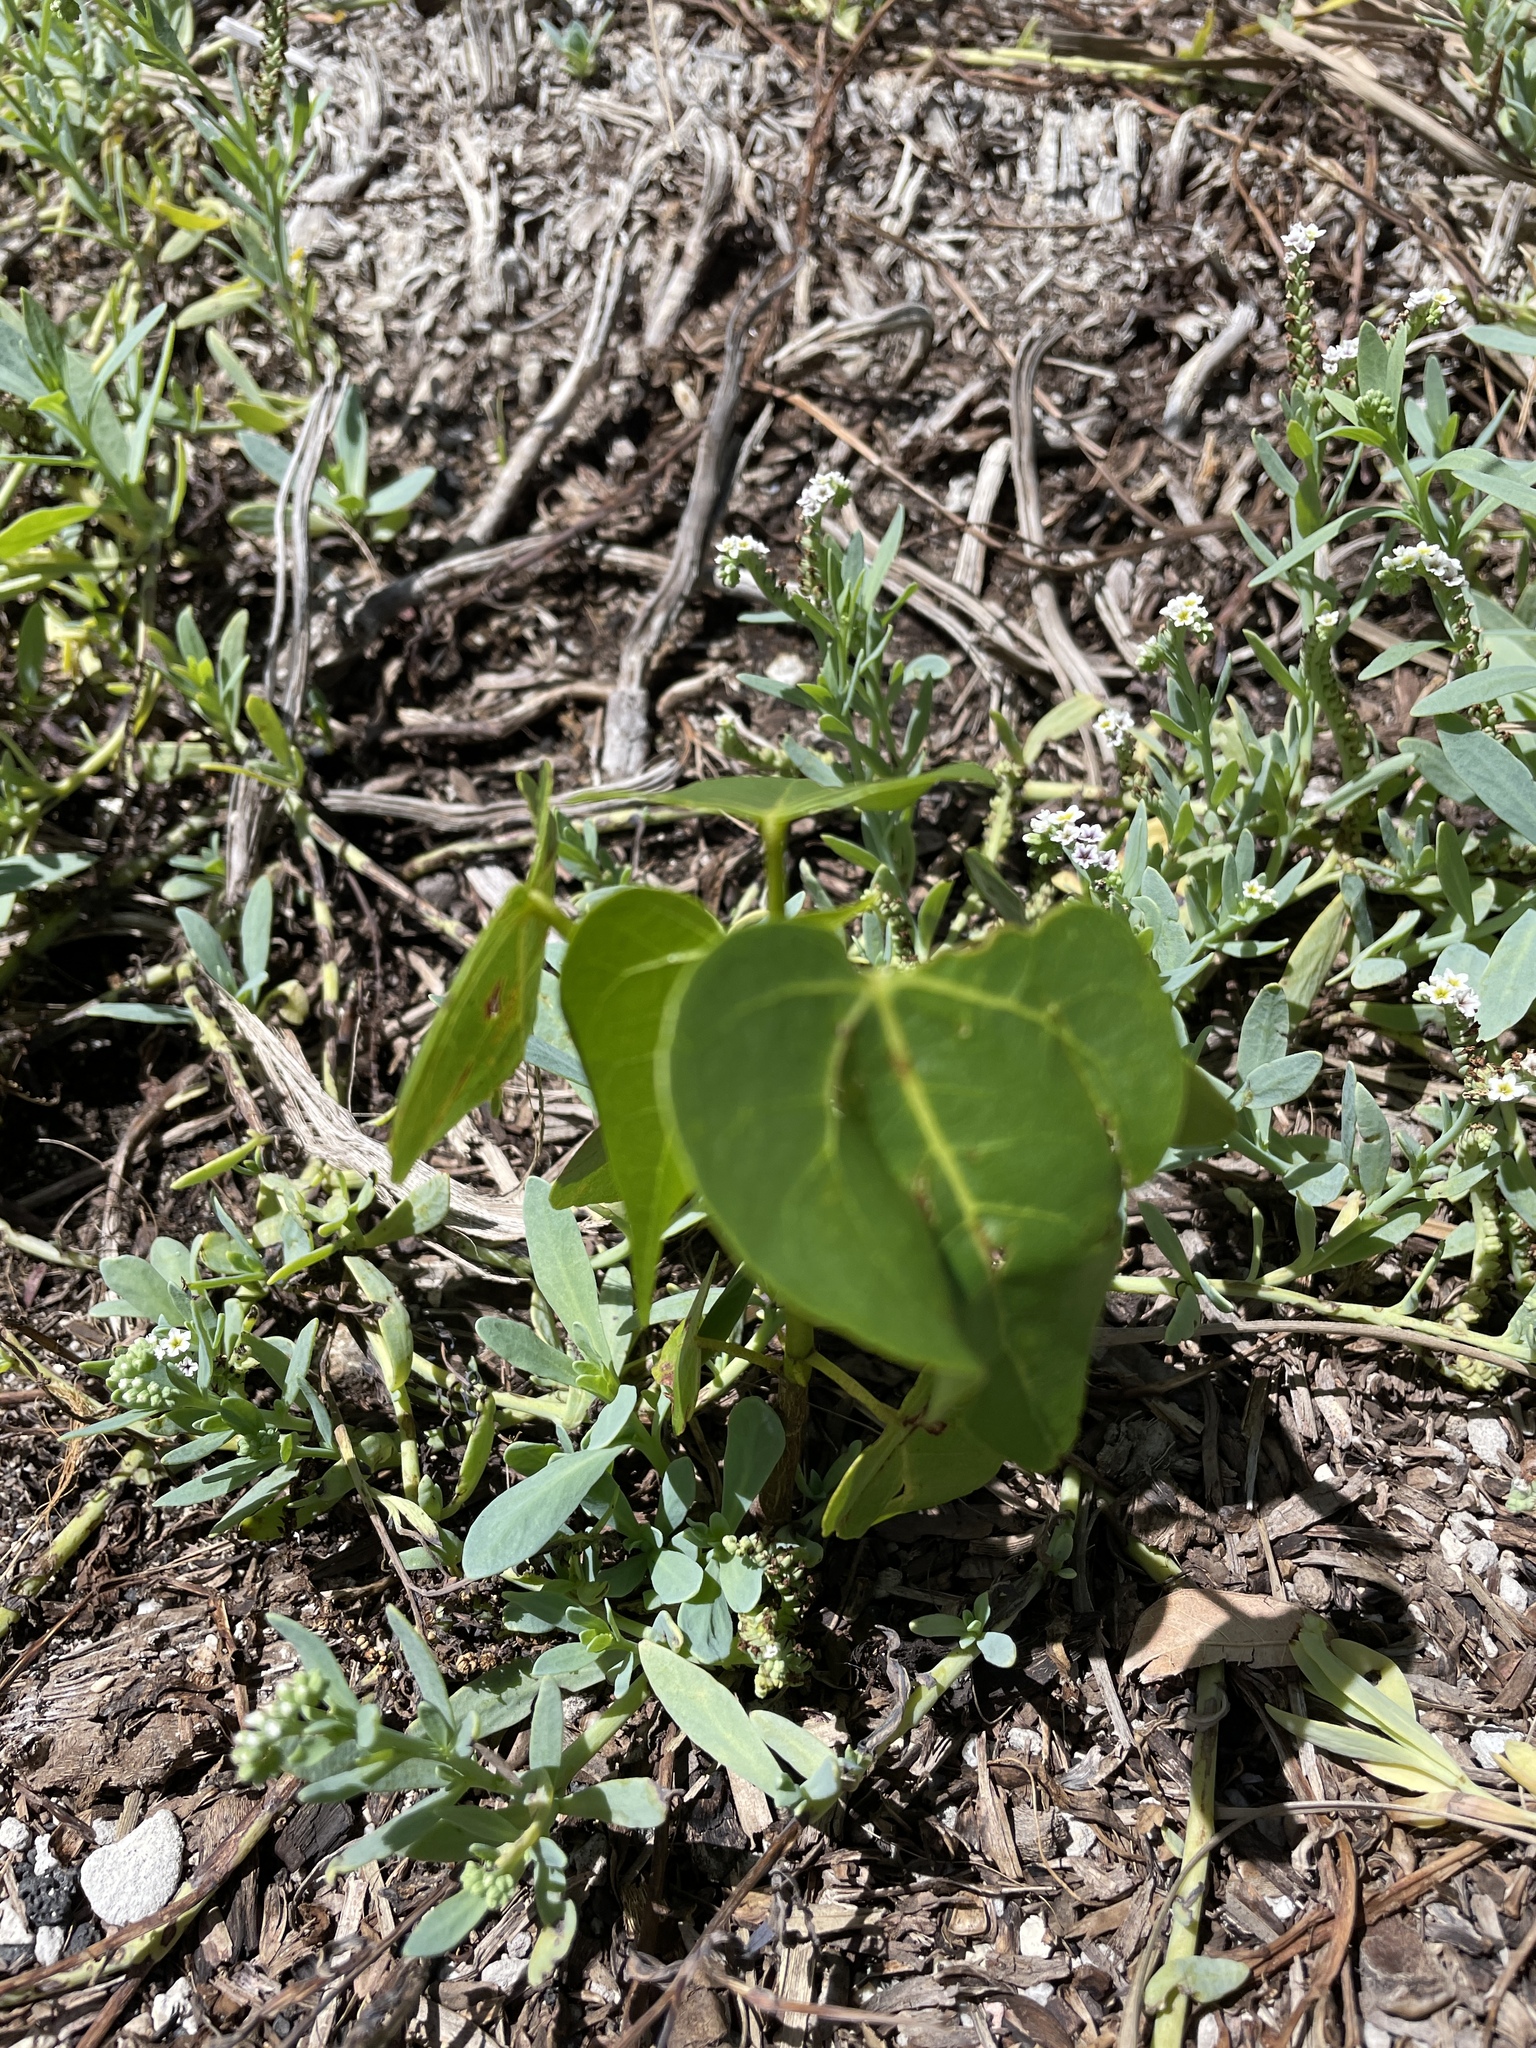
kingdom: Plantae
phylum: Tracheophyta
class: Magnoliopsida
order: Malvales
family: Malvaceae
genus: Thespesia
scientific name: Thespesia populnea
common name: Seaside mahoe
